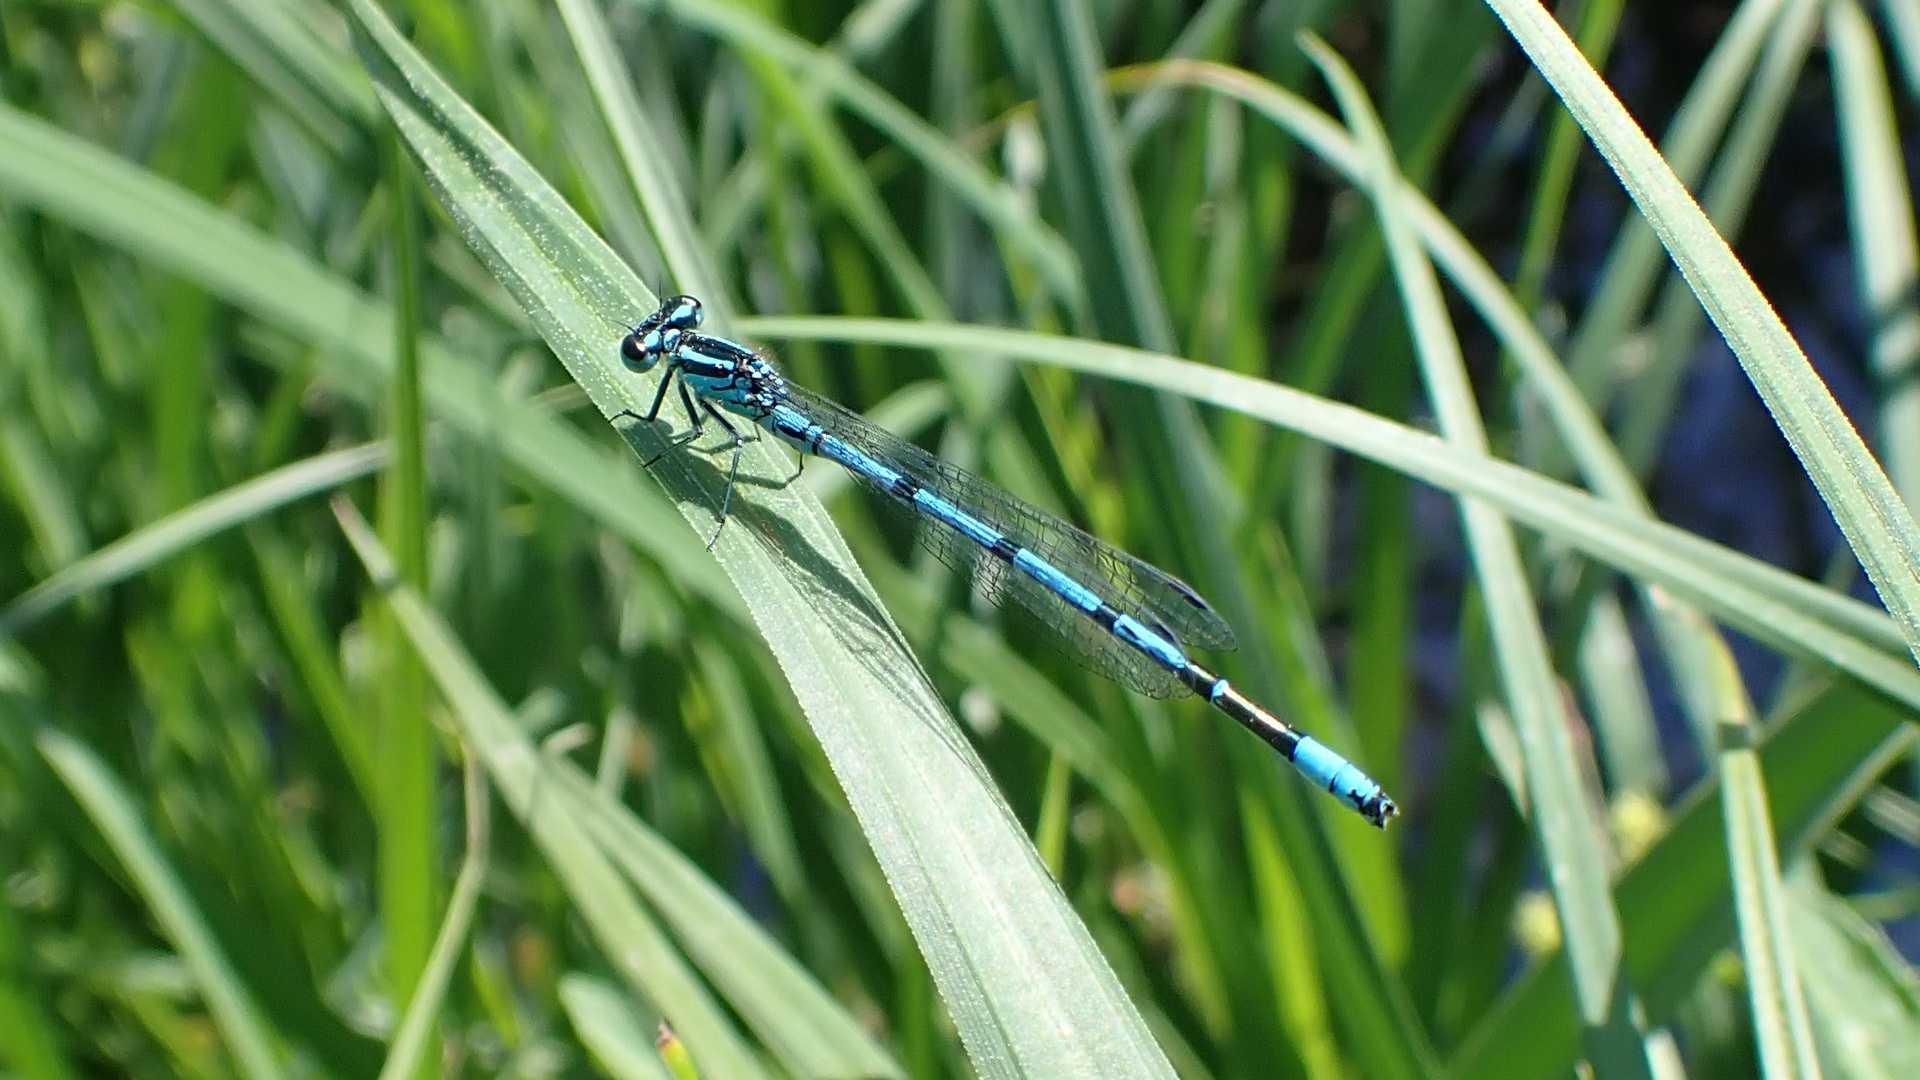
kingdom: Animalia
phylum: Arthropoda
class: Insecta
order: Odonata
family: Coenagrionidae
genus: Coenagrion
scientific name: Coenagrion puella
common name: Azure damselfly
